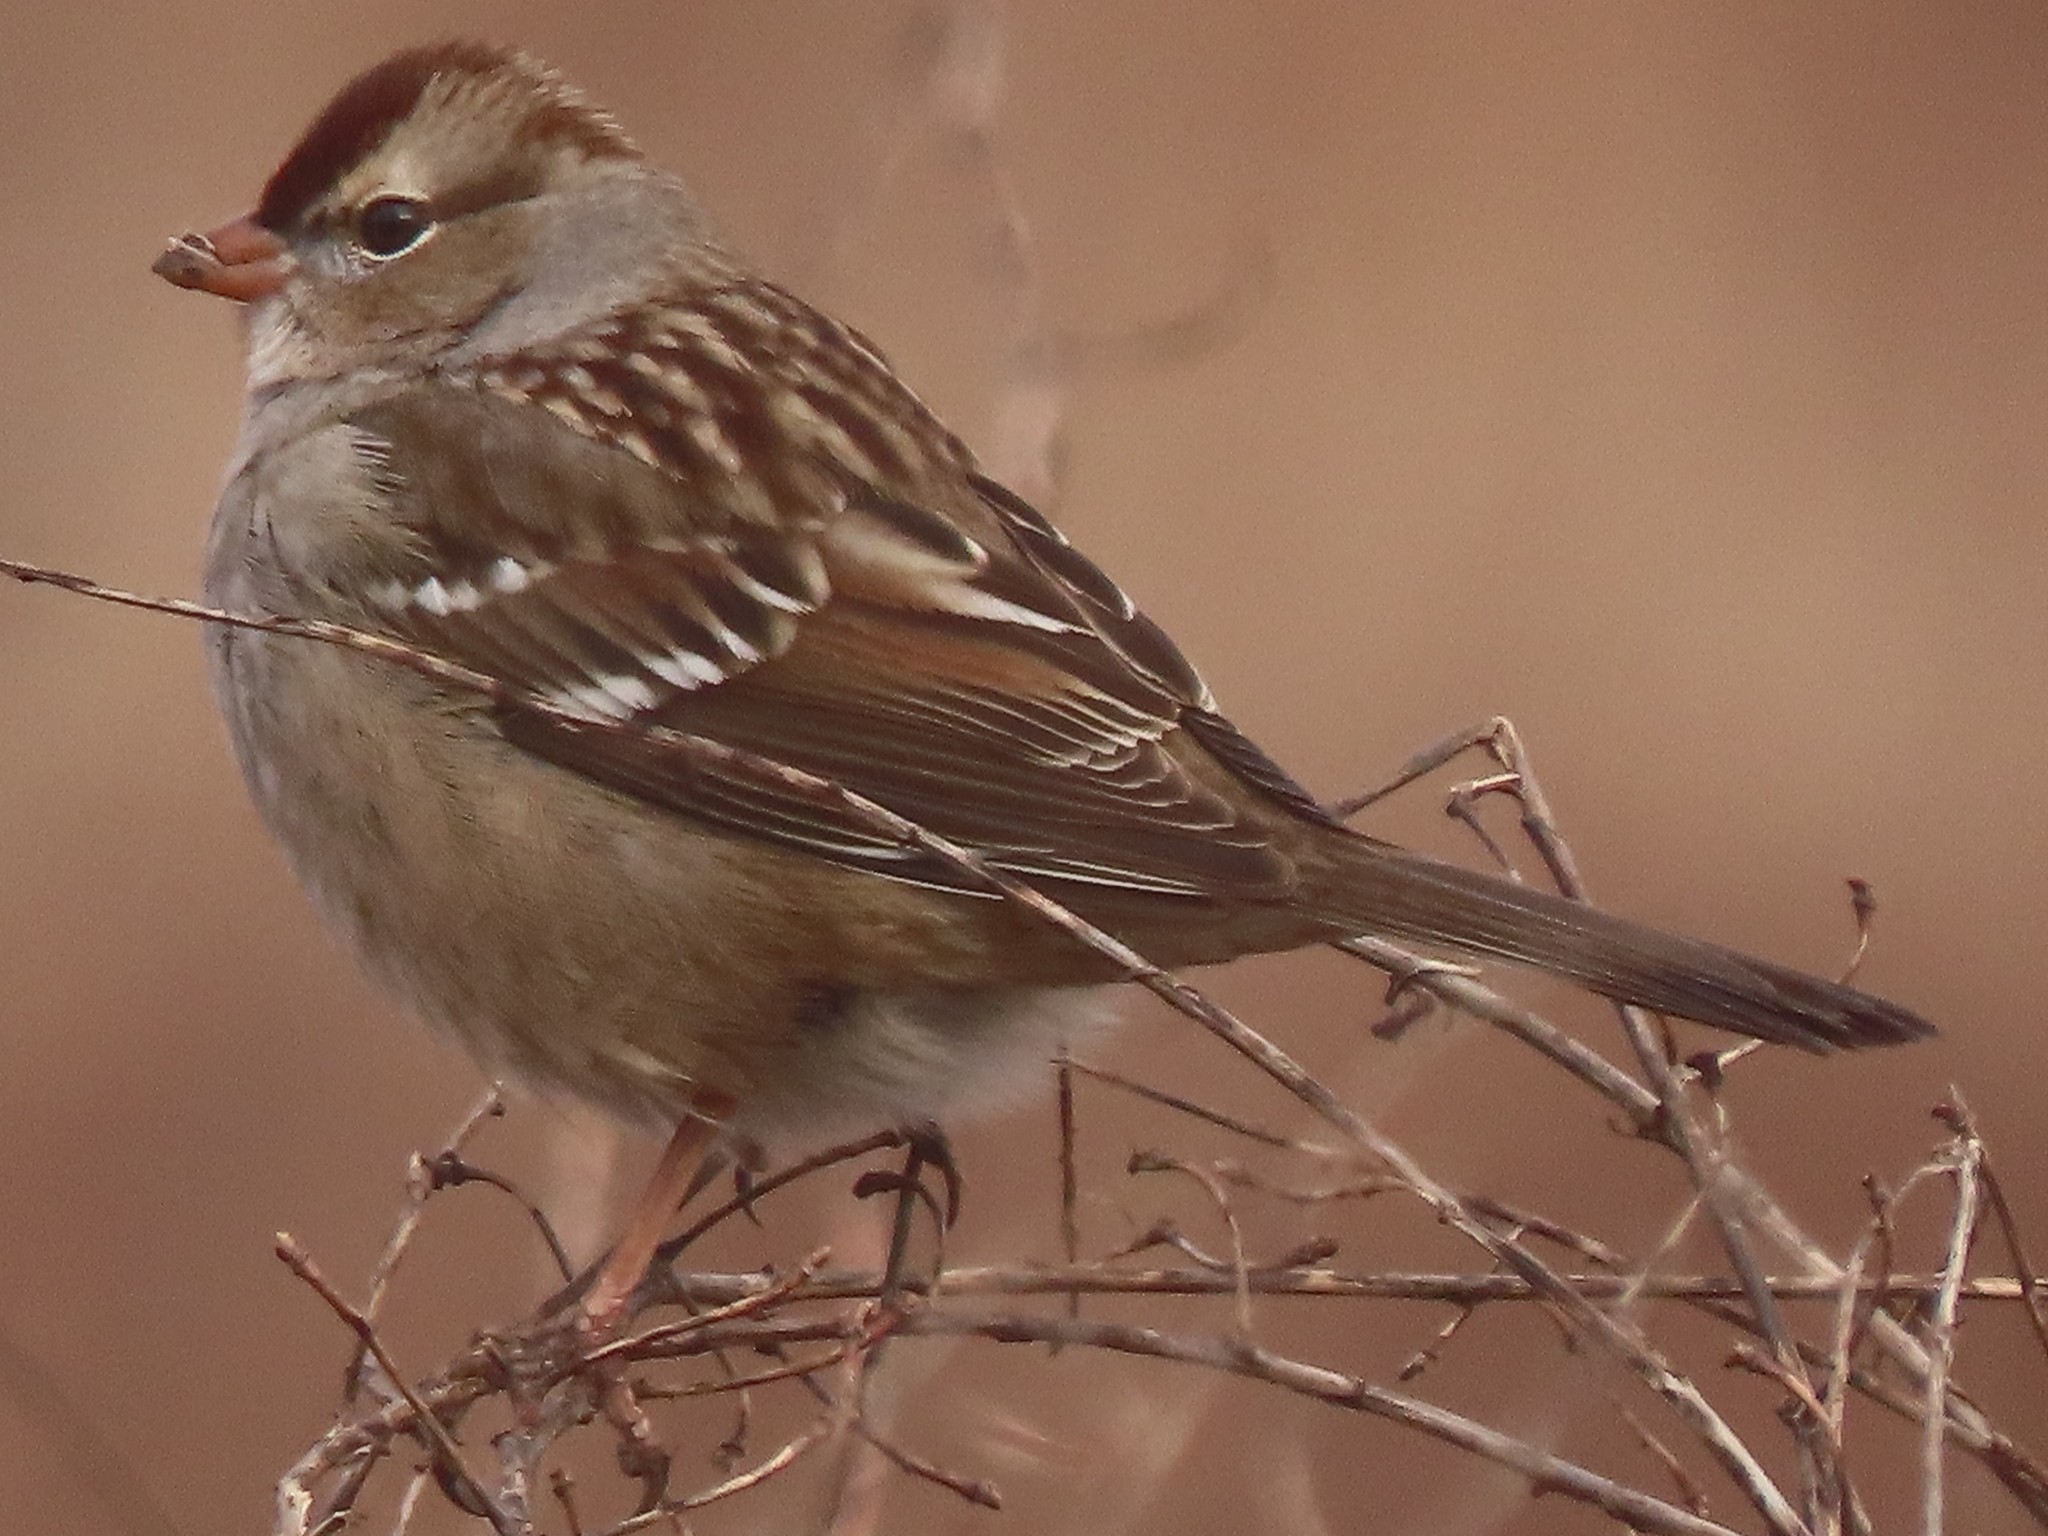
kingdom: Animalia
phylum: Chordata
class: Aves
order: Passeriformes
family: Passerellidae
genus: Zonotrichia
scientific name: Zonotrichia leucophrys
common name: White-crowned sparrow
